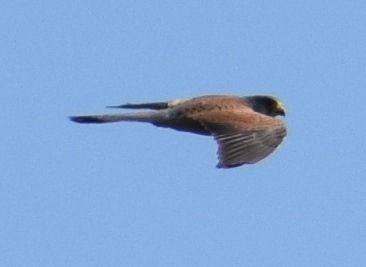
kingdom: Animalia
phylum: Chordata
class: Aves
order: Falconiformes
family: Falconidae
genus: Falco
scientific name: Falco tinnunculus
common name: Common kestrel
